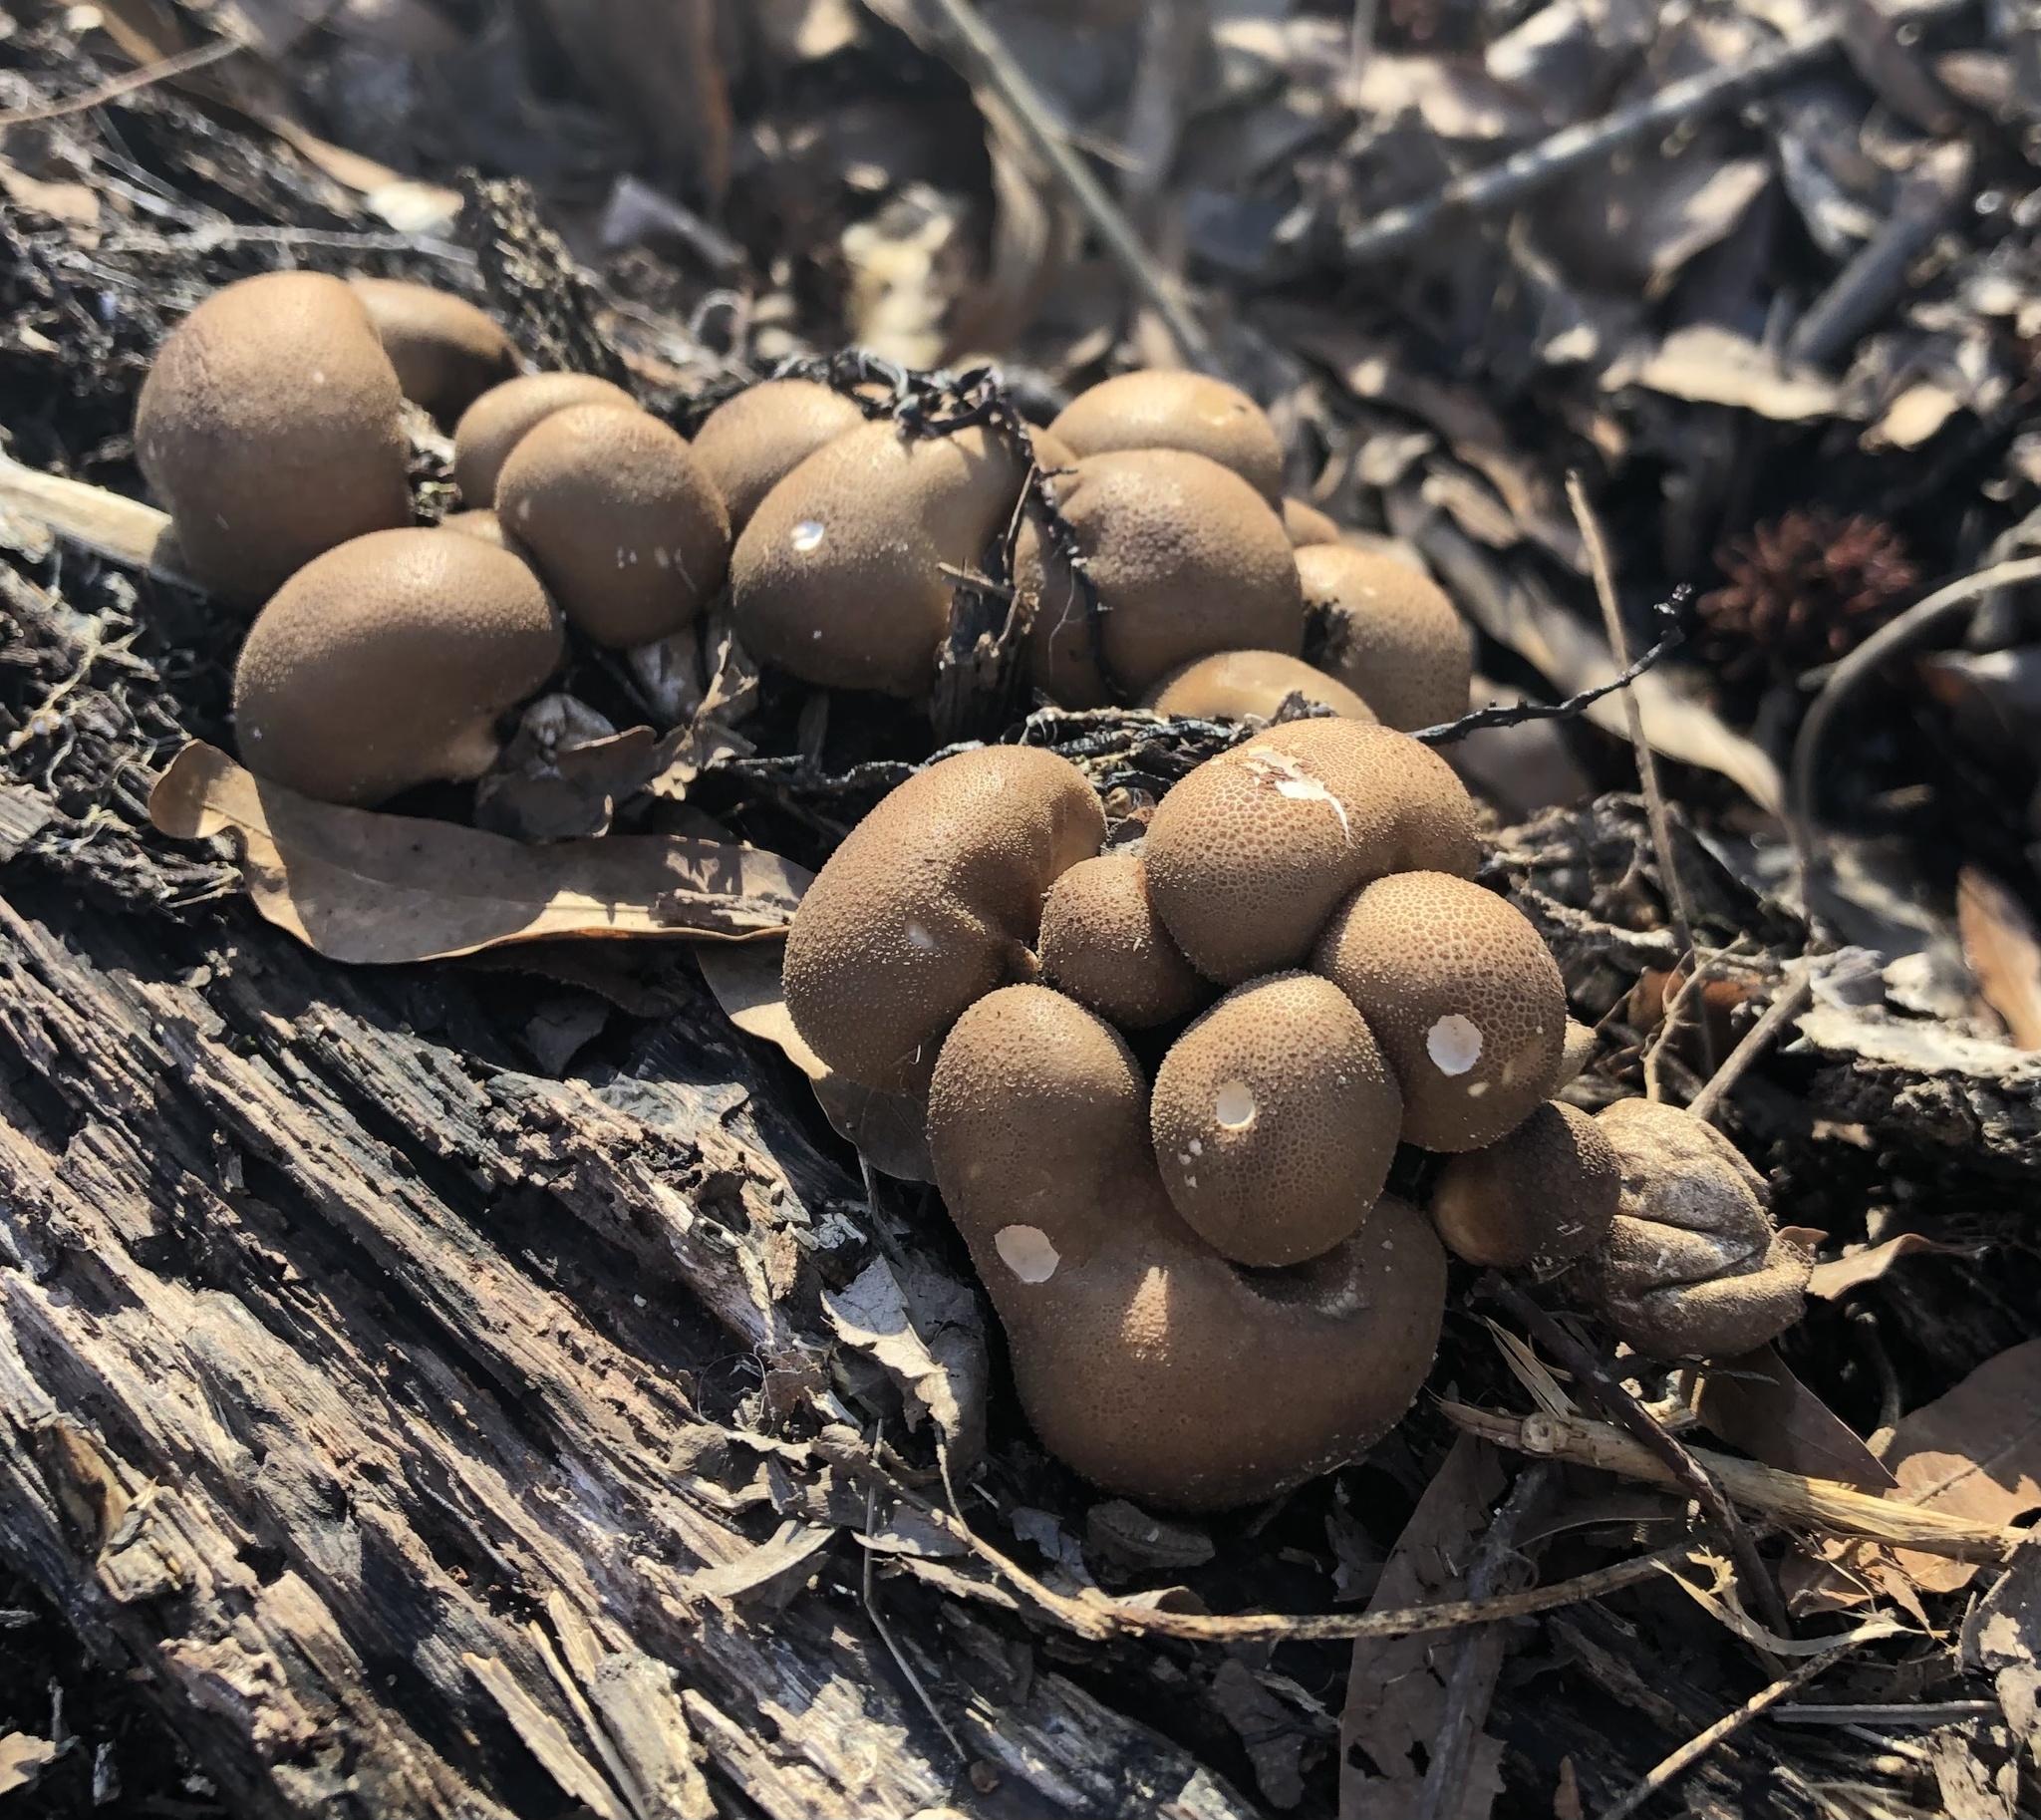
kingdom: Fungi
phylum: Basidiomycota
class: Agaricomycetes
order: Agaricales
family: Lycoperdaceae
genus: Apioperdon
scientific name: Apioperdon pyriforme
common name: Pear-shaped puffball
